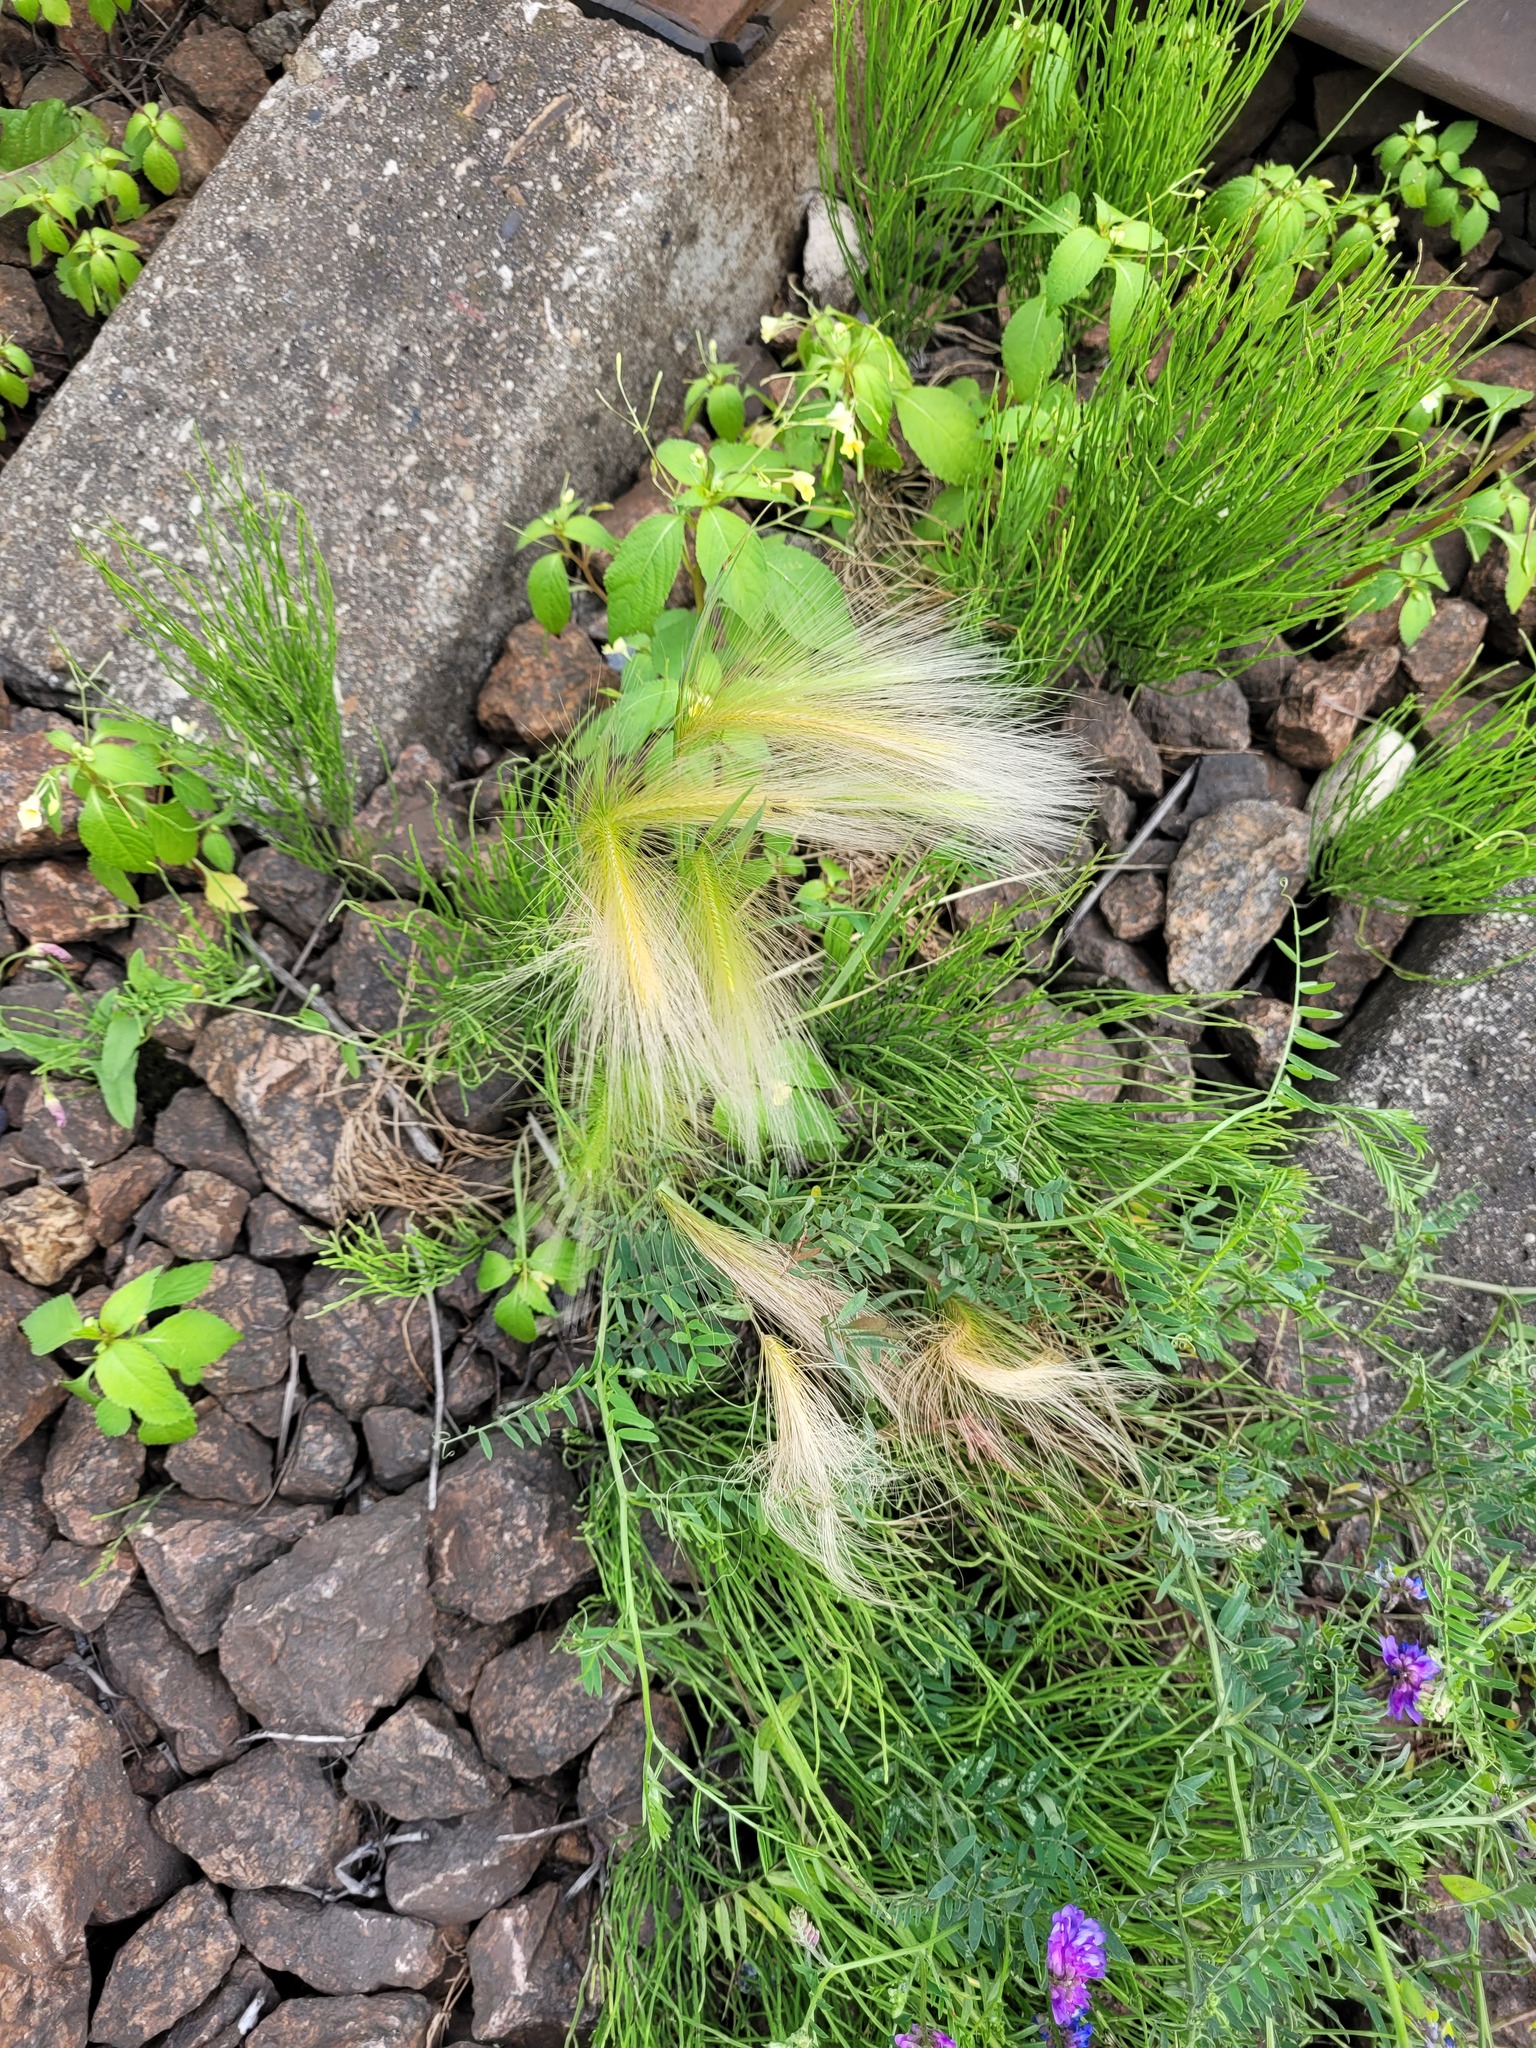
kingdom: Plantae
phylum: Tracheophyta
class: Liliopsida
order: Poales
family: Poaceae
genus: Hordeum
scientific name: Hordeum jubatum
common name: Foxtail barley
